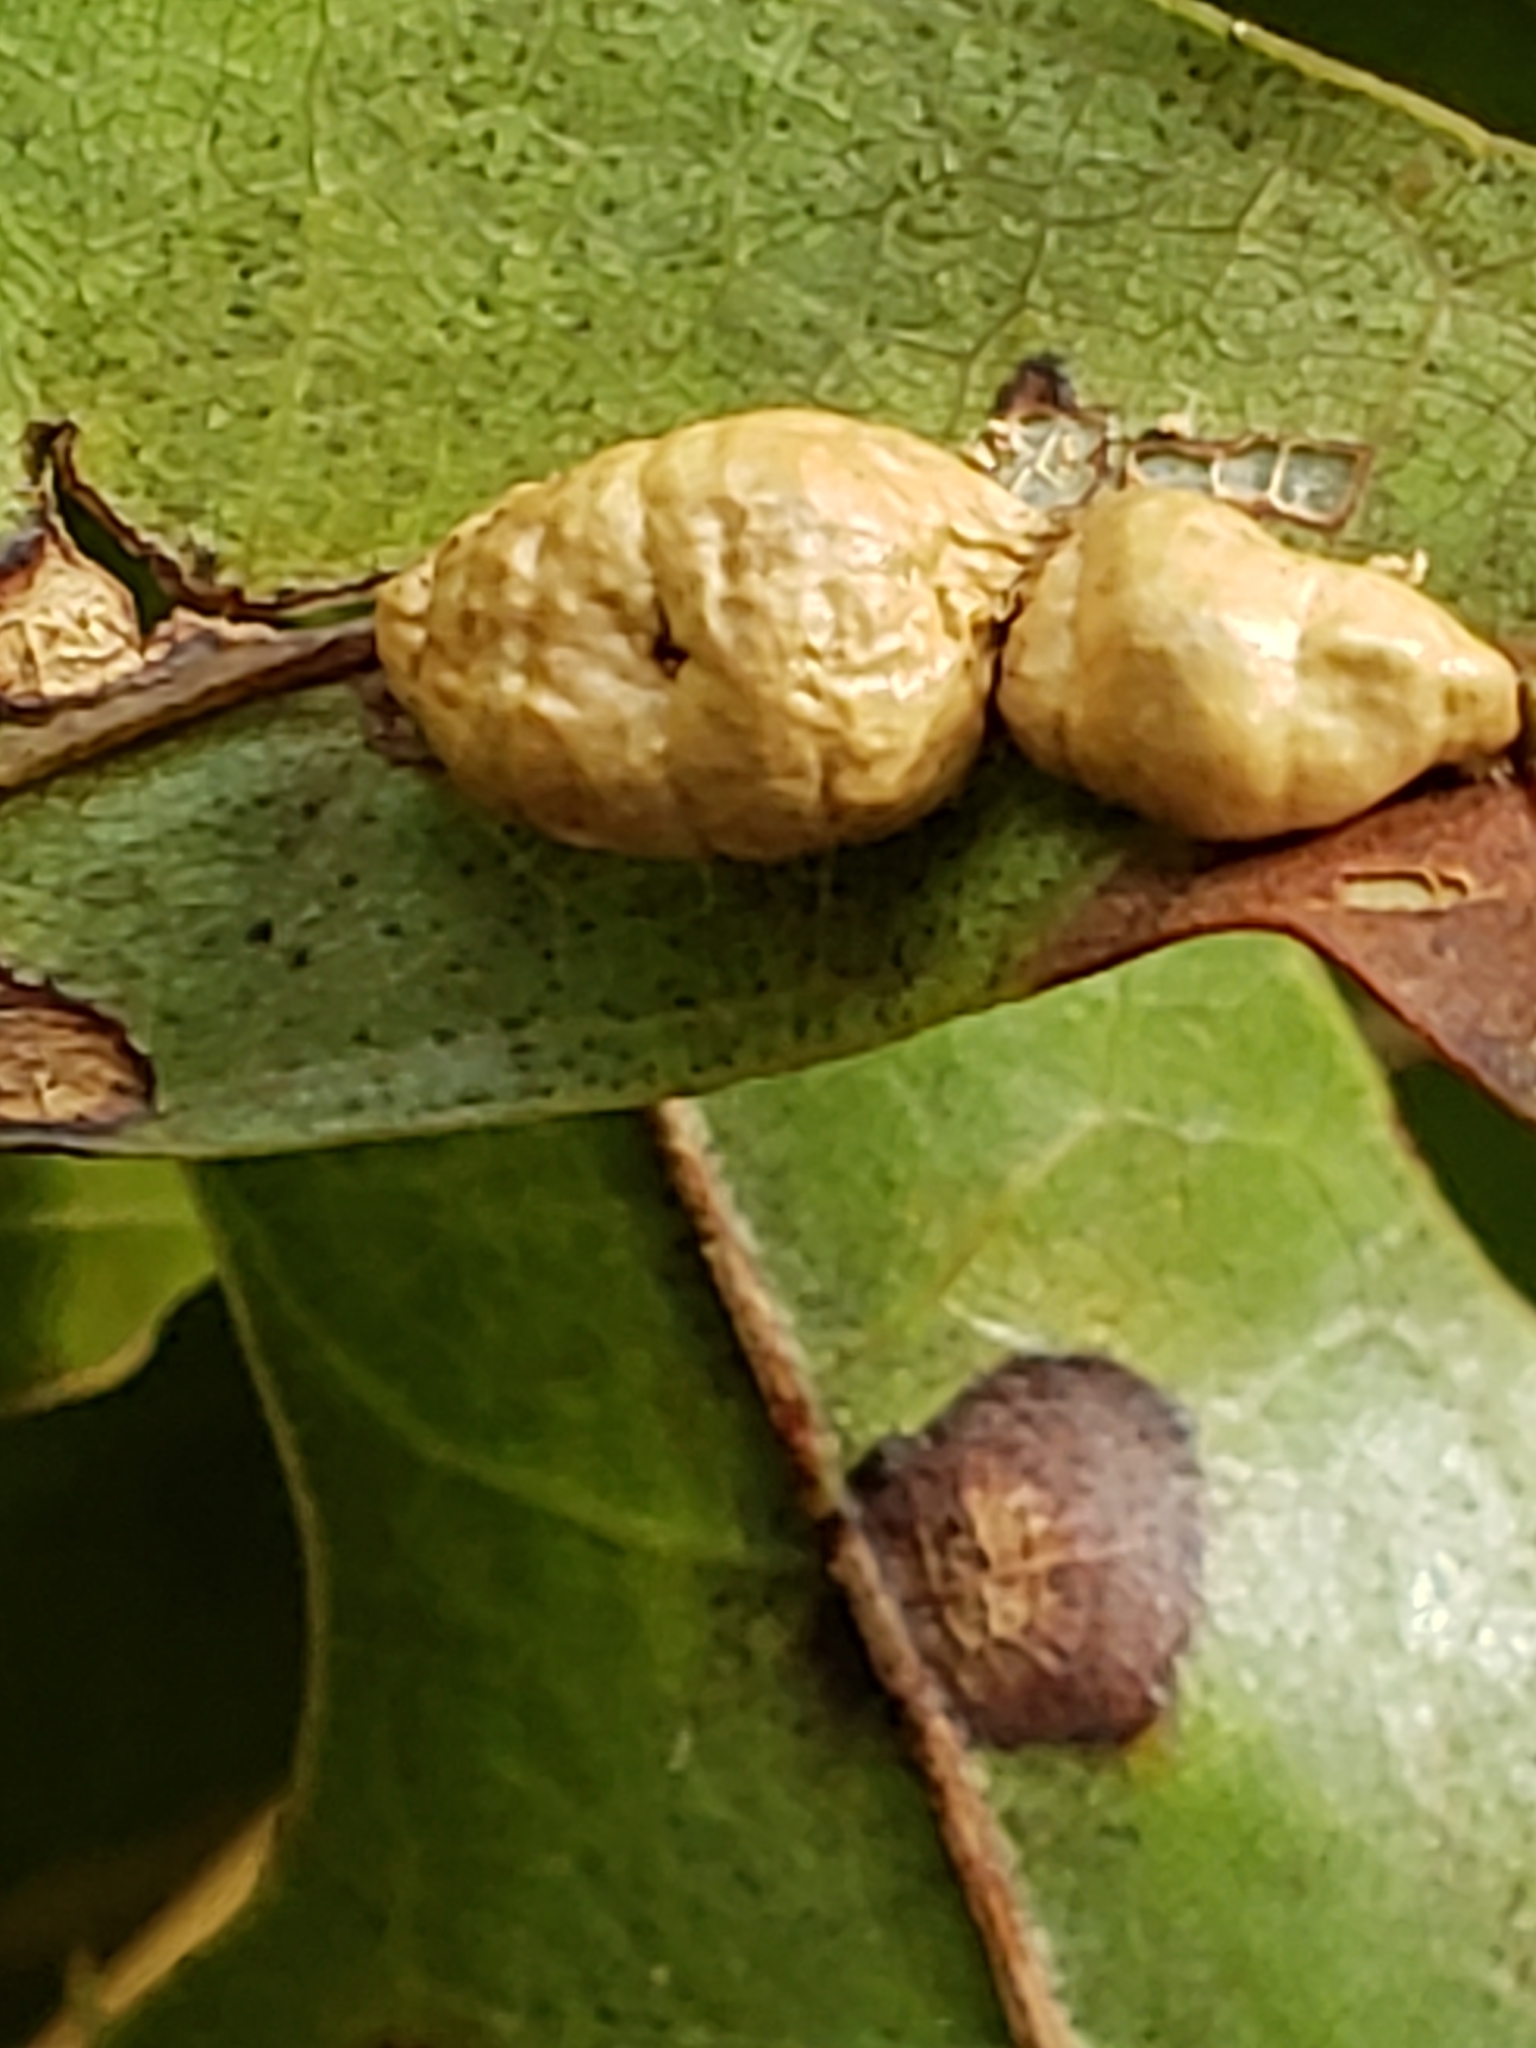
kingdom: Animalia
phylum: Arthropoda
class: Insecta
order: Diptera
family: Cecidomyiidae
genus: Macrodiplosis
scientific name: Macrodiplosis majalis
